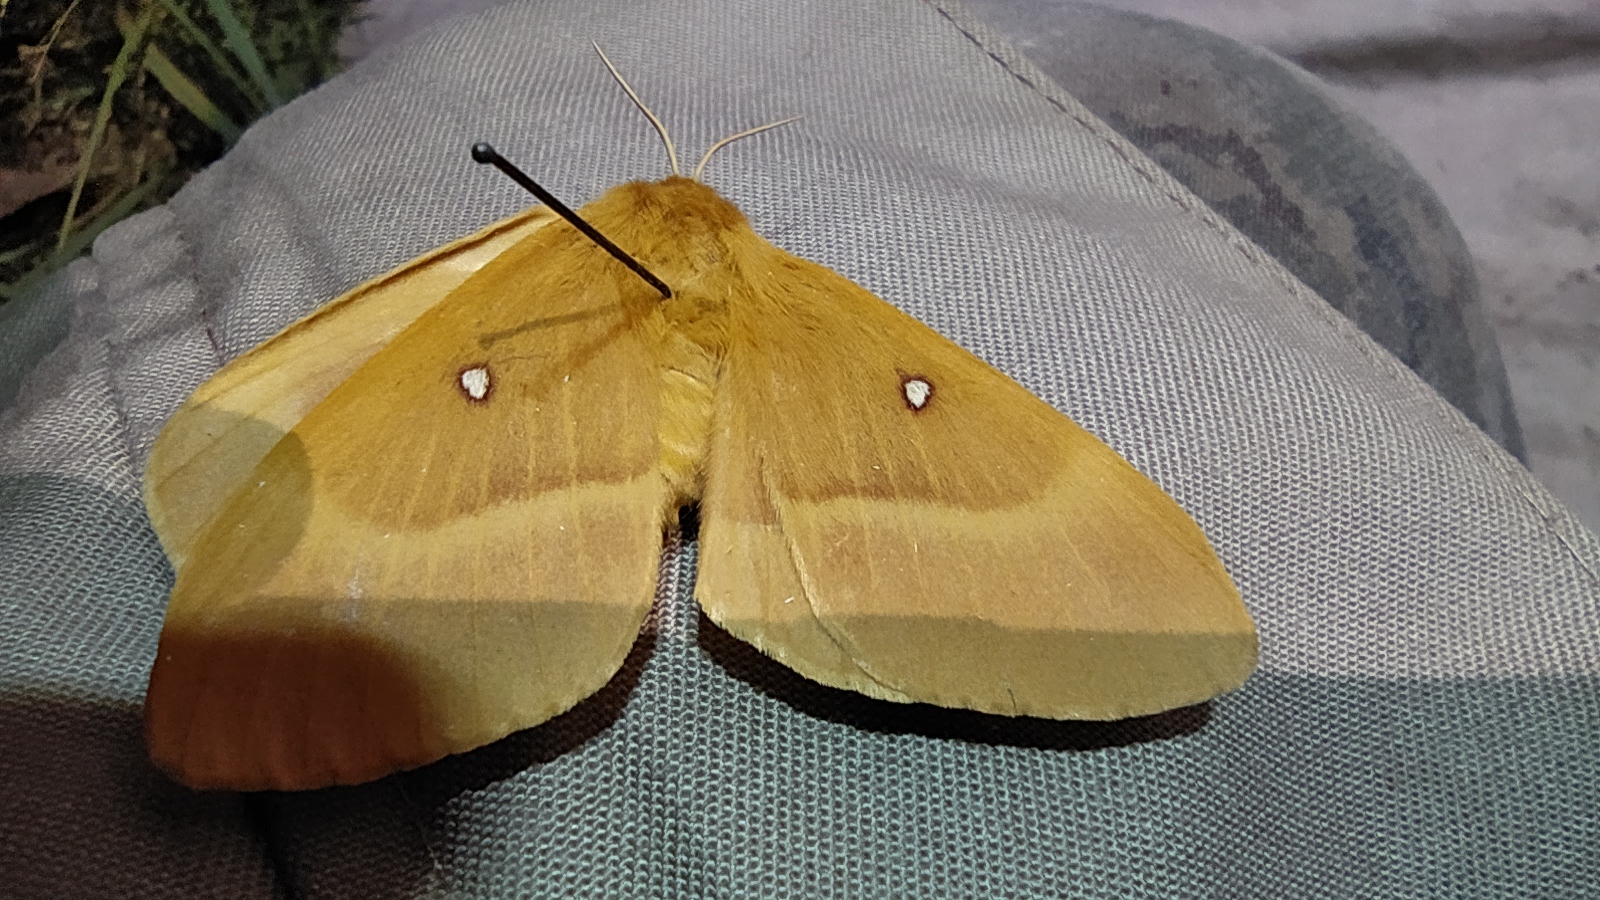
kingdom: Animalia
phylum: Arthropoda
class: Insecta
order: Lepidoptera
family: Lasiocampidae
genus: Lasiocampa
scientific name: Lasiocampa quercus
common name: Oak eggar
